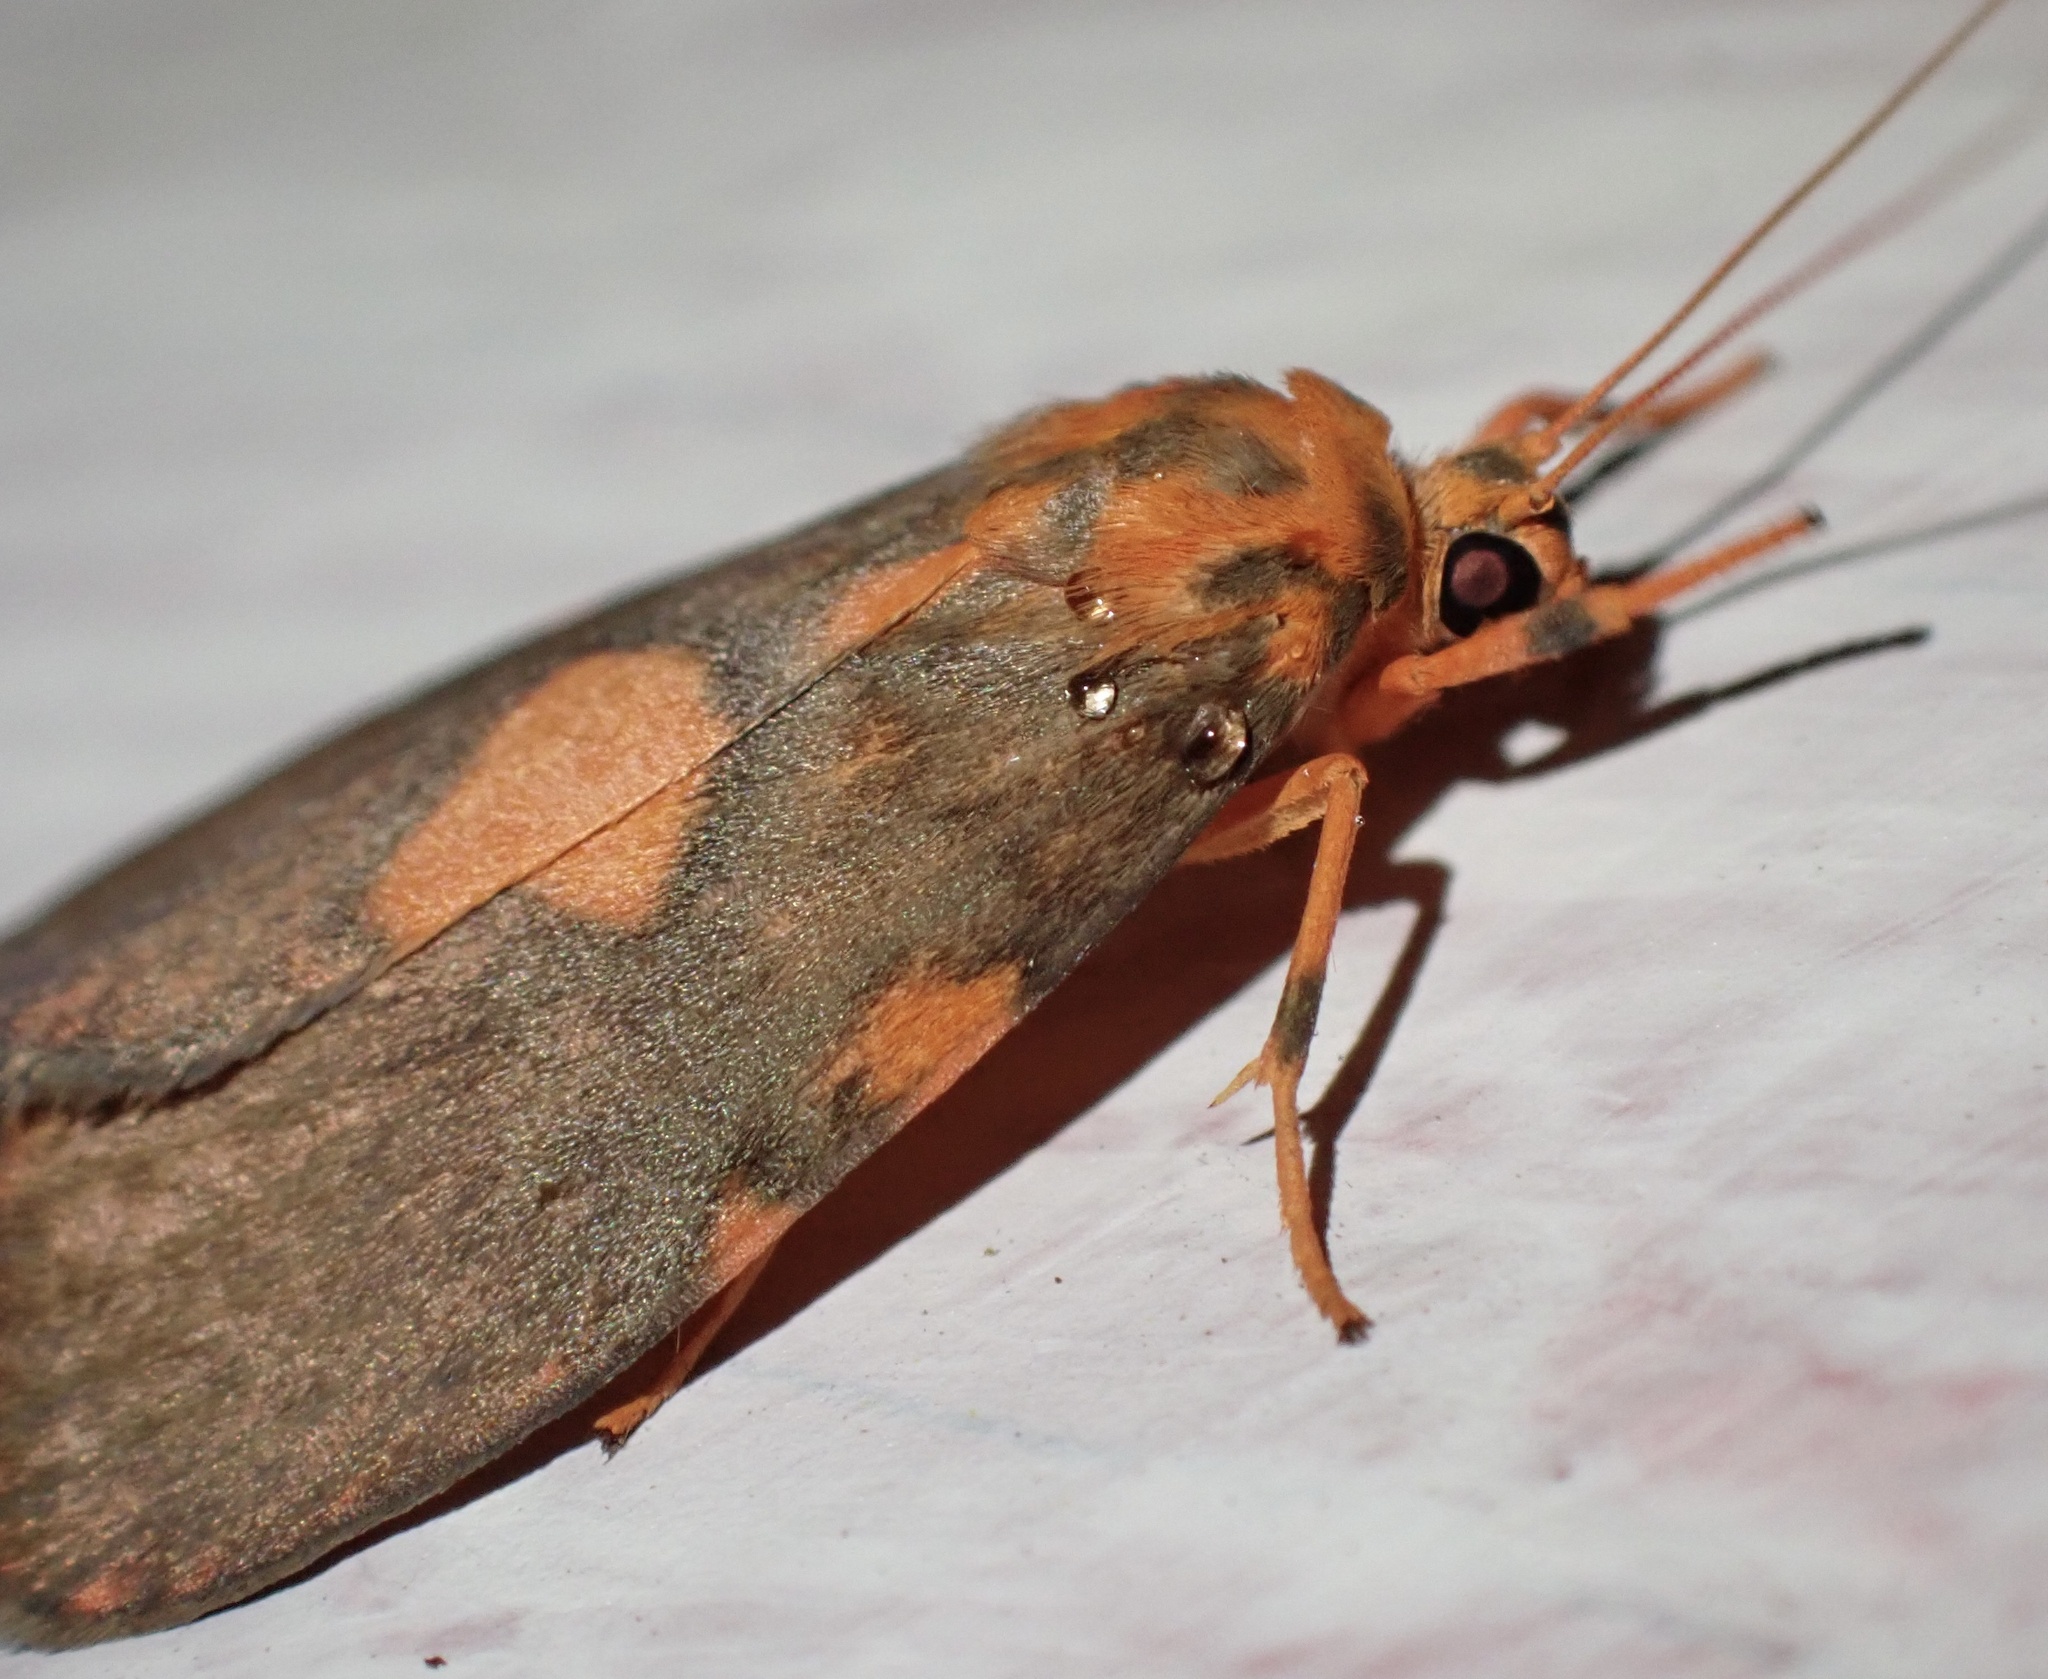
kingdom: Animalia
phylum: Arthropoda
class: Insecta
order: Lepidoptera
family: Erebidae
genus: Cyme
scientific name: Cyme triangularis
